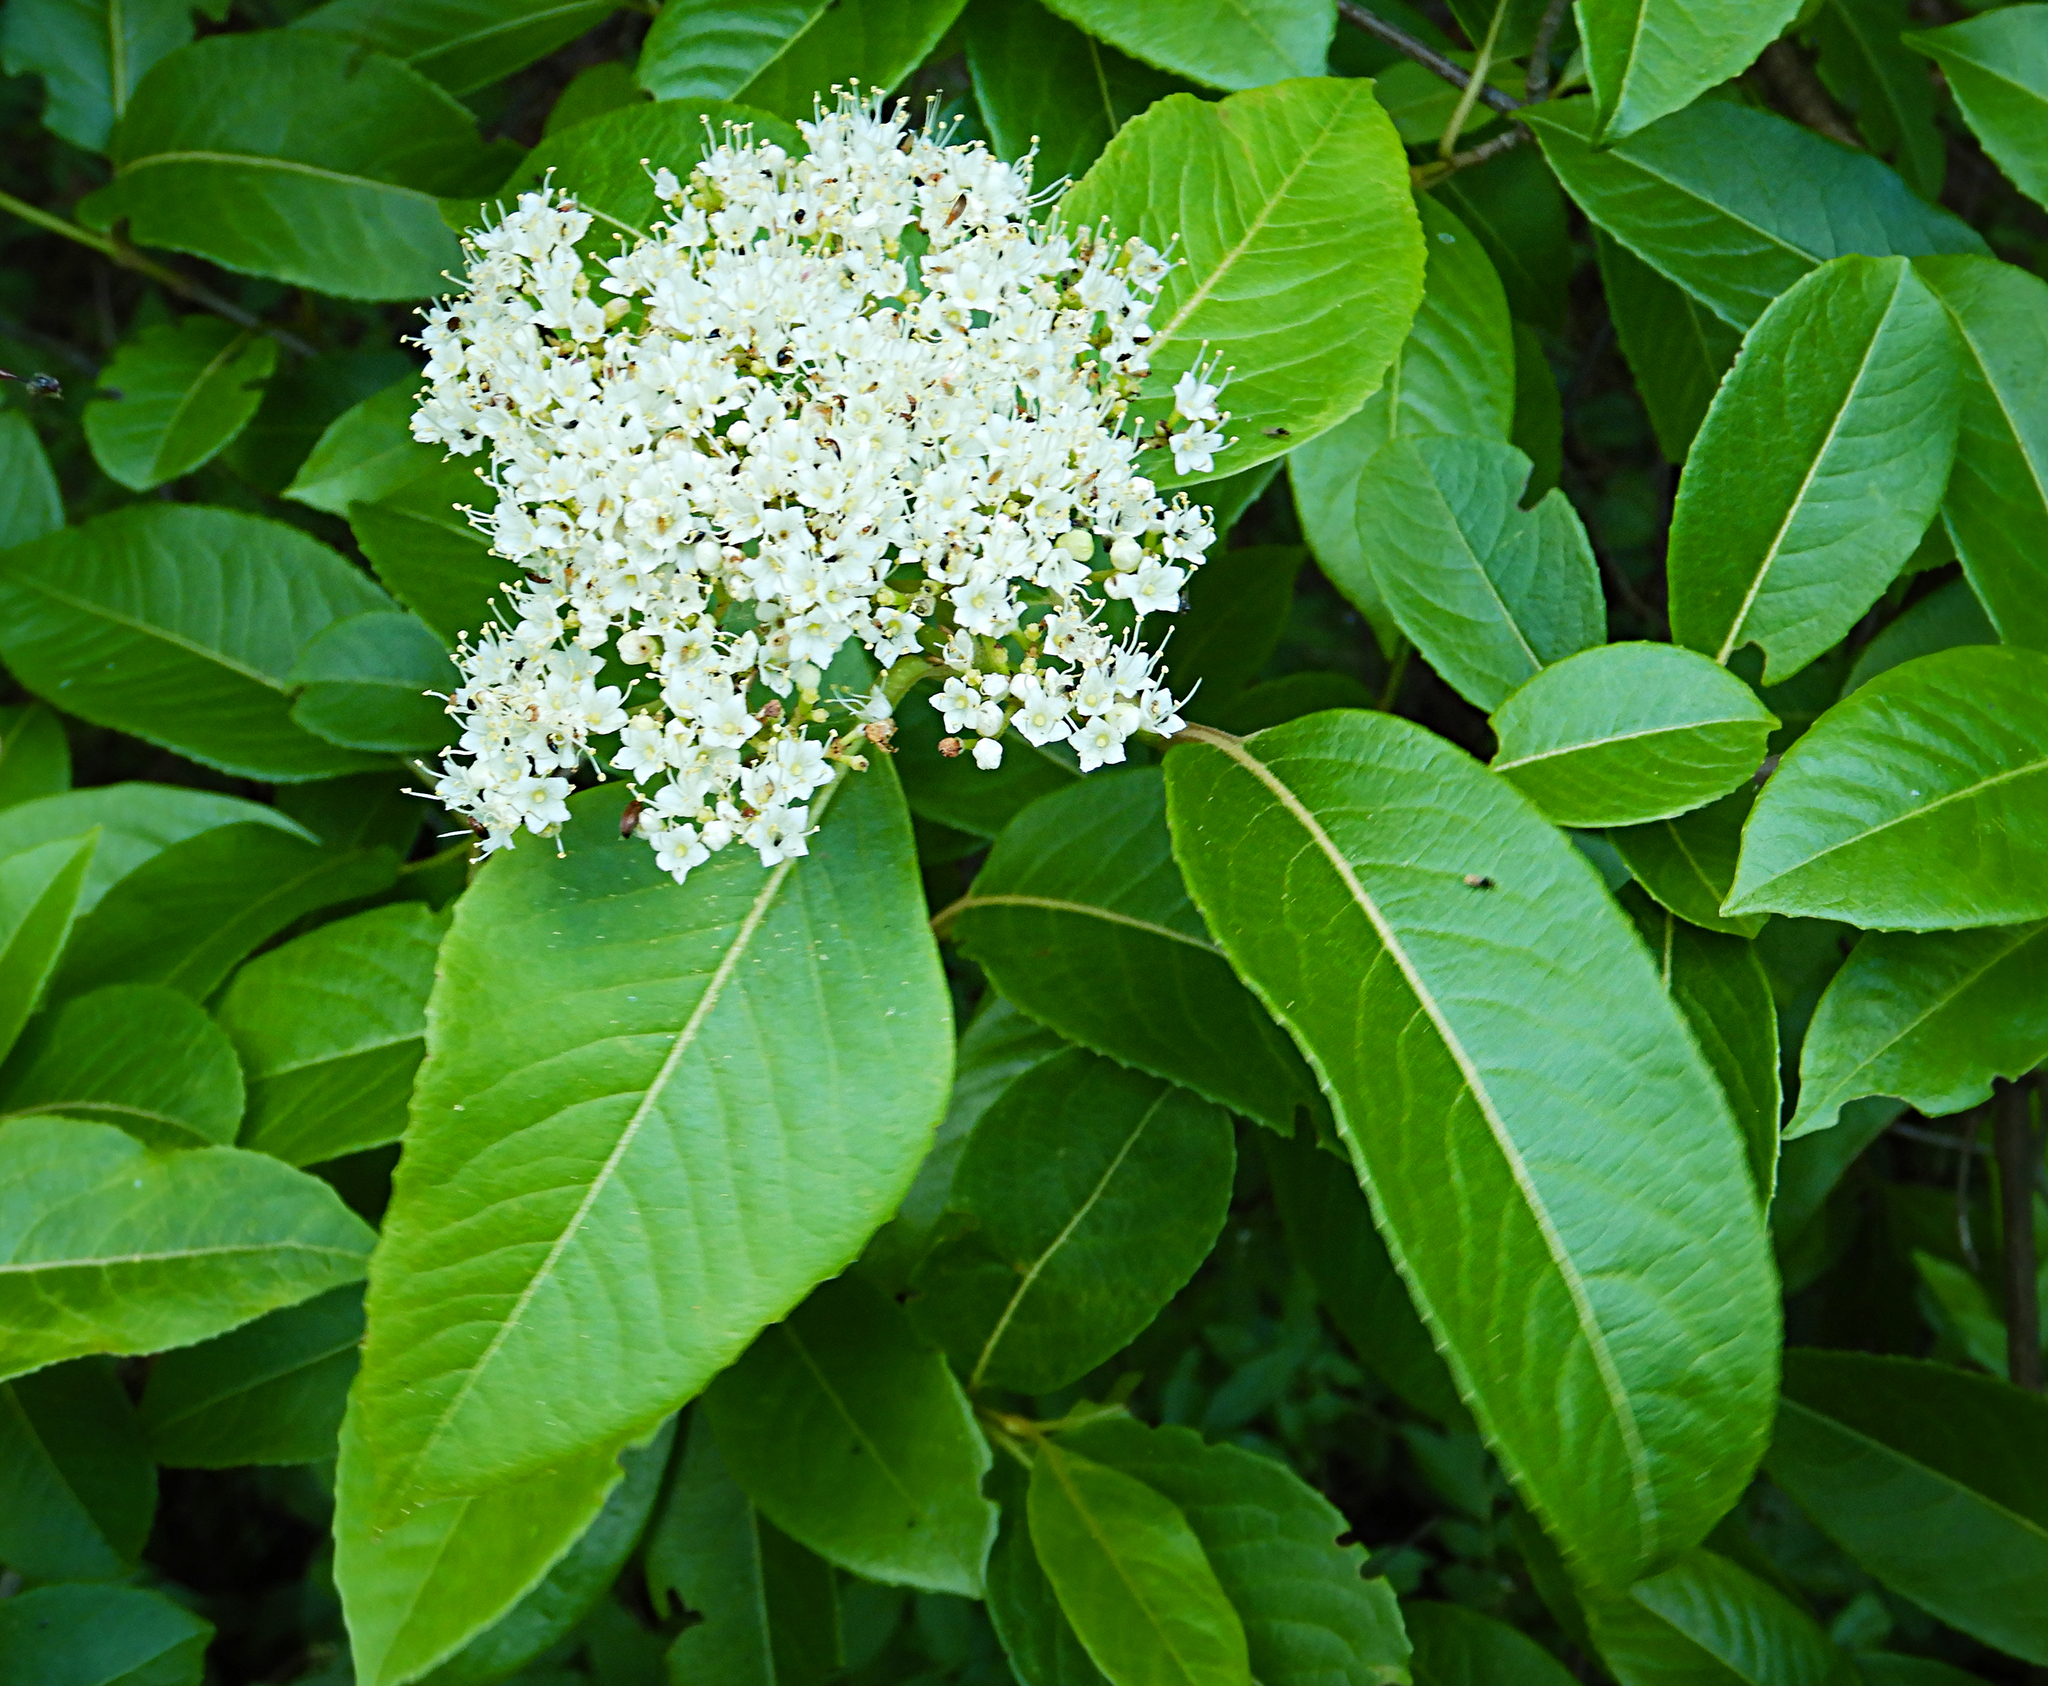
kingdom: Plantae
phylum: Tracheophyta
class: Magnoliopsida
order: Dipsacales
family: Viburnaceae
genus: Viburnum
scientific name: Viburnum cassinoides
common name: Swamp haw
